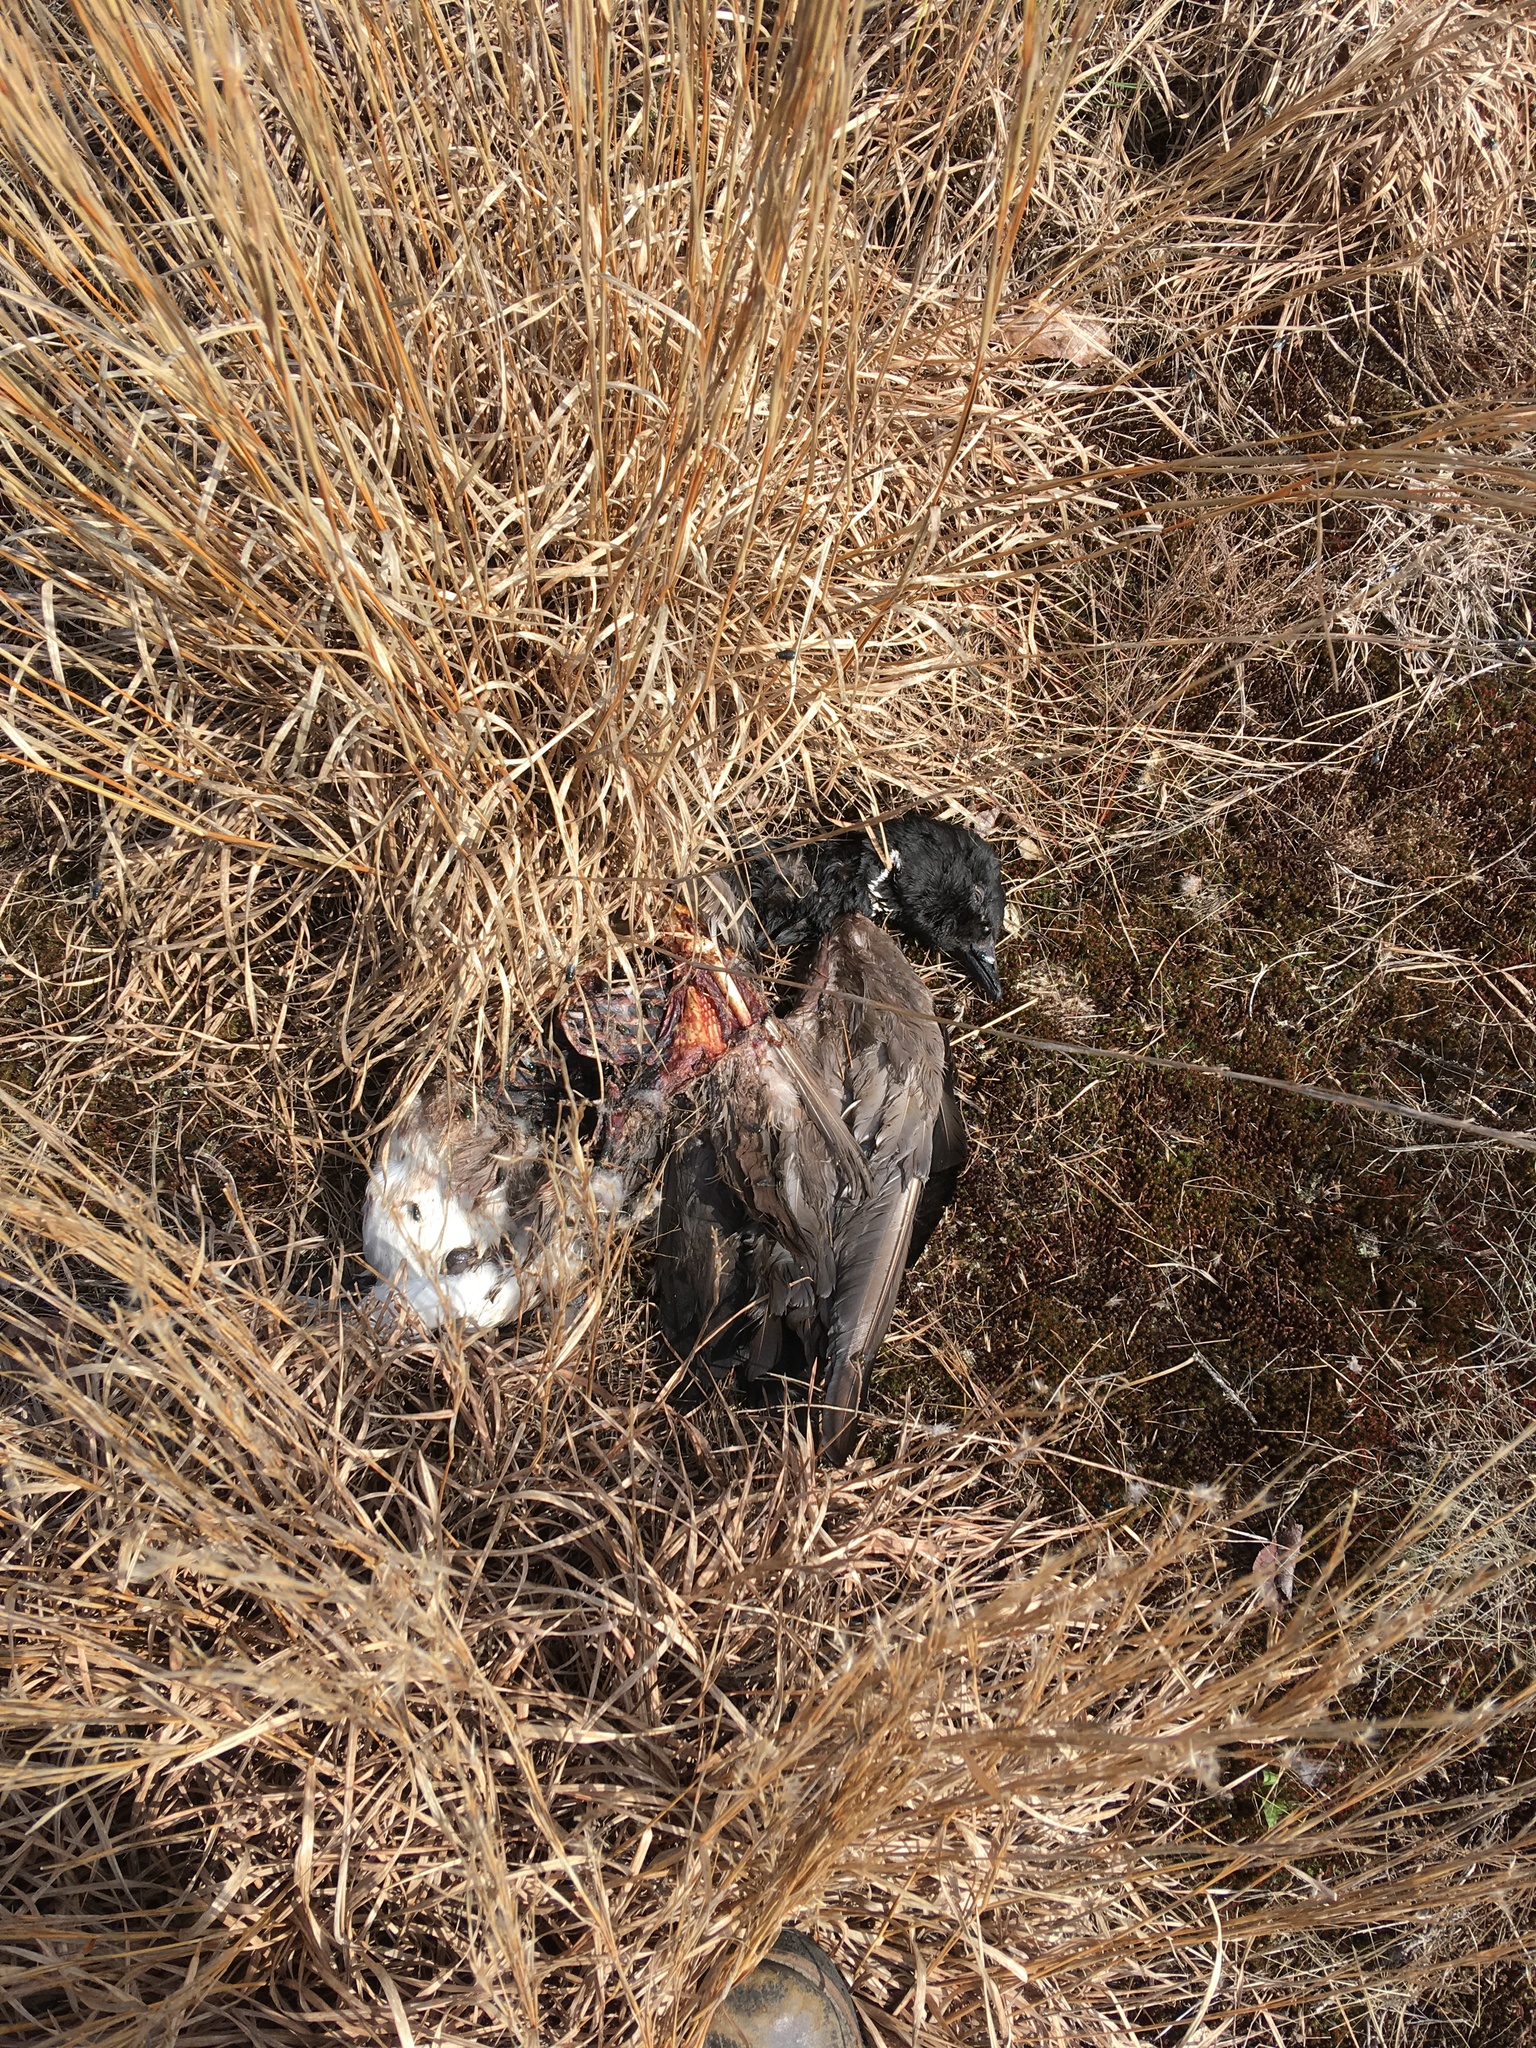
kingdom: Animalia
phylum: Chordata
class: Aves
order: Anseriformes
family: Anatidae
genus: Branta
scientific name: Branta bernicla
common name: Brant goose
